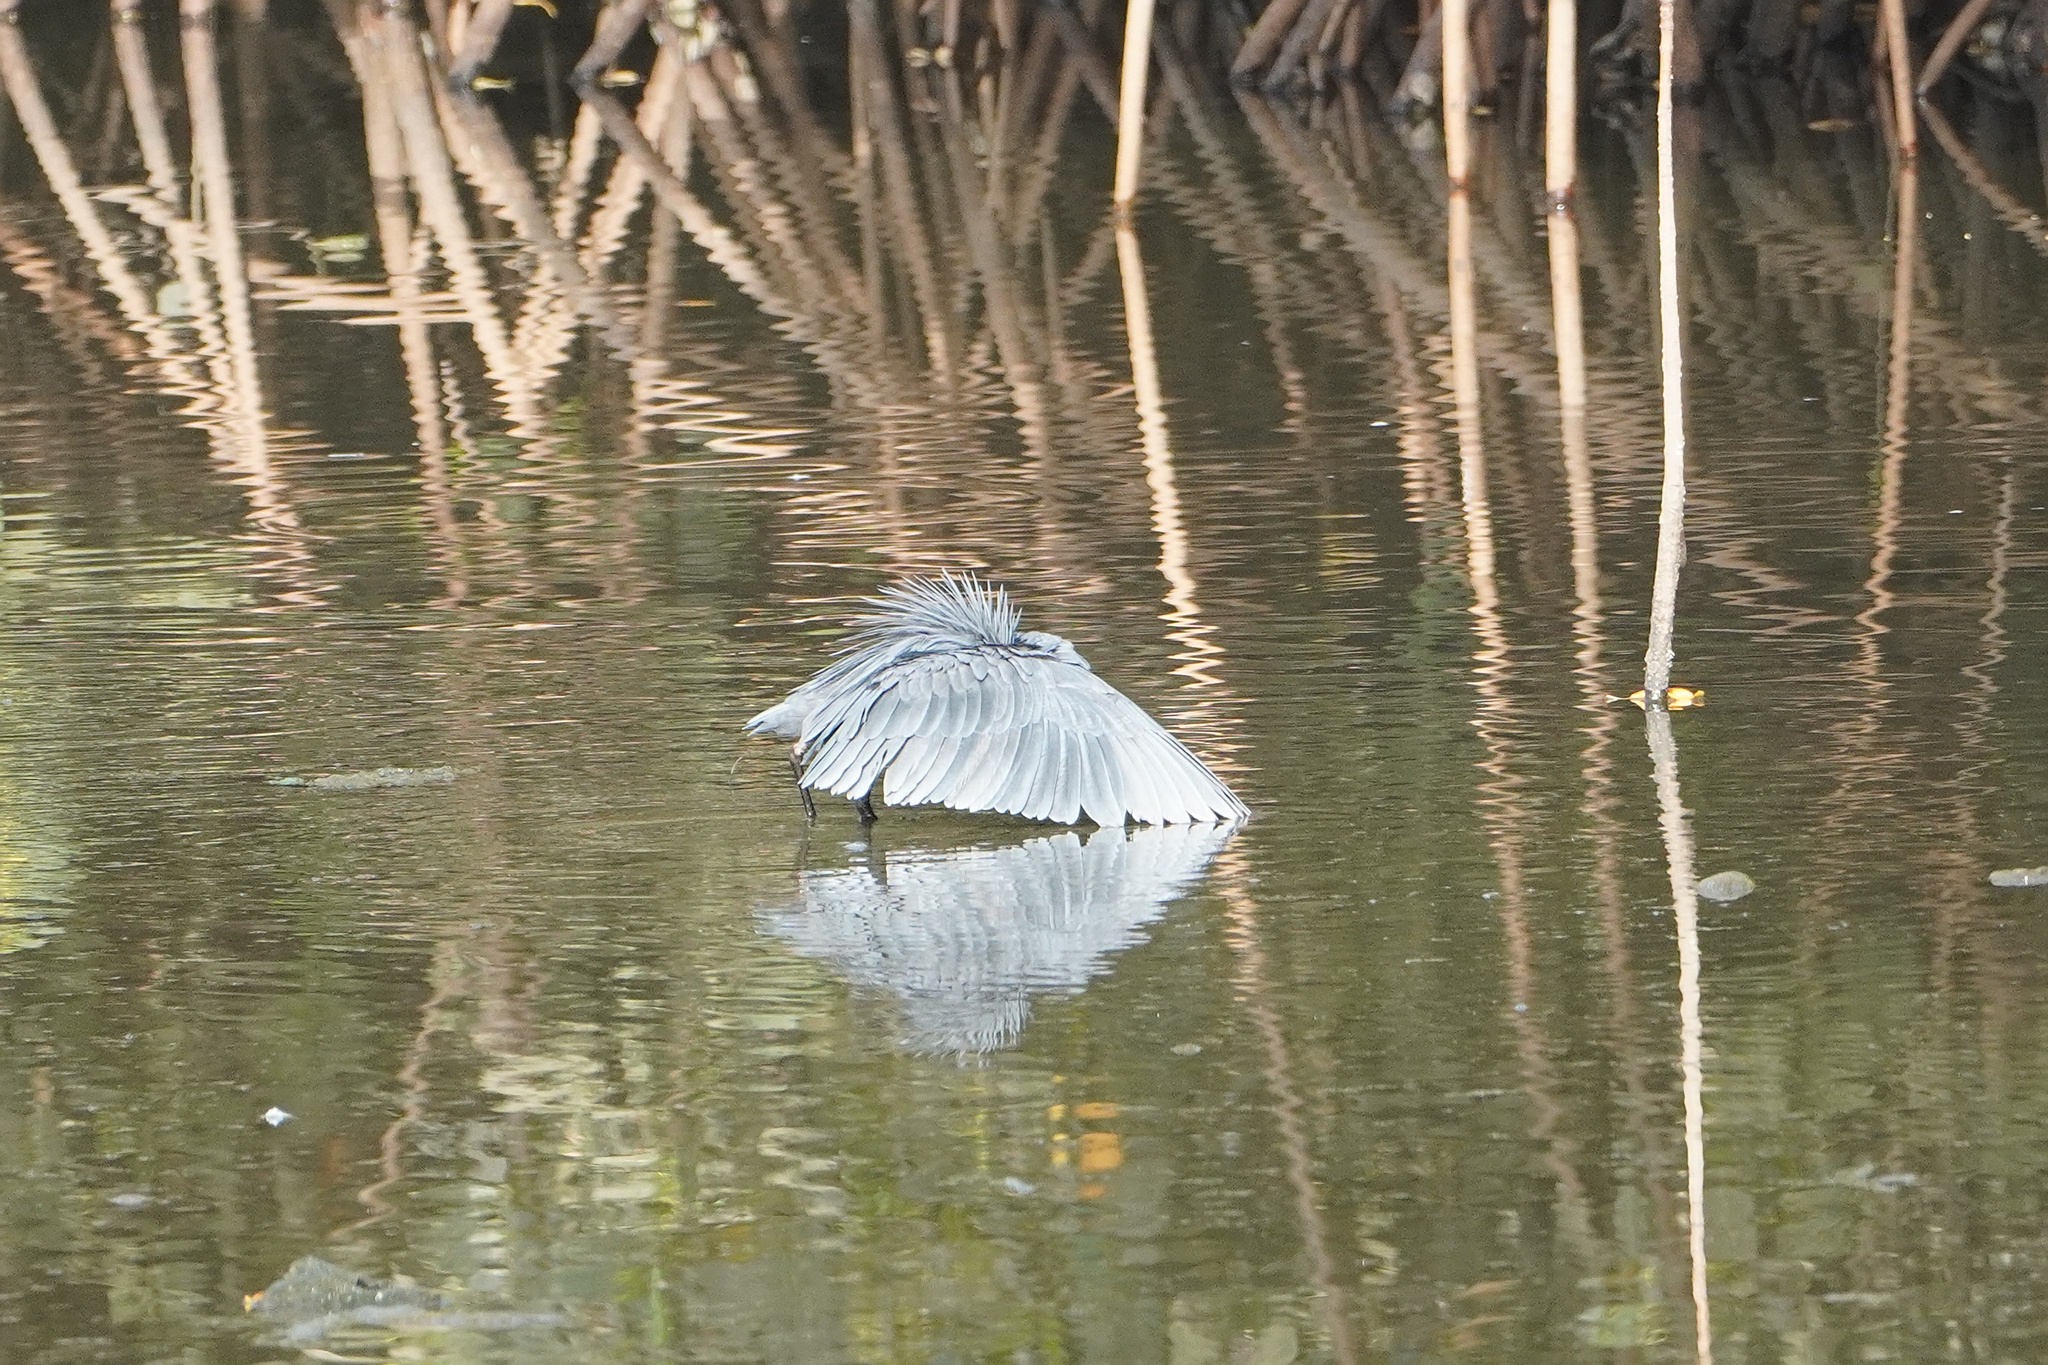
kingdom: Animalia
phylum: Chordata
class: Aves
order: Pelecaniformes
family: Ardeidae
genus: Egretta
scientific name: Egretta ardesiaca
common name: Black heron
